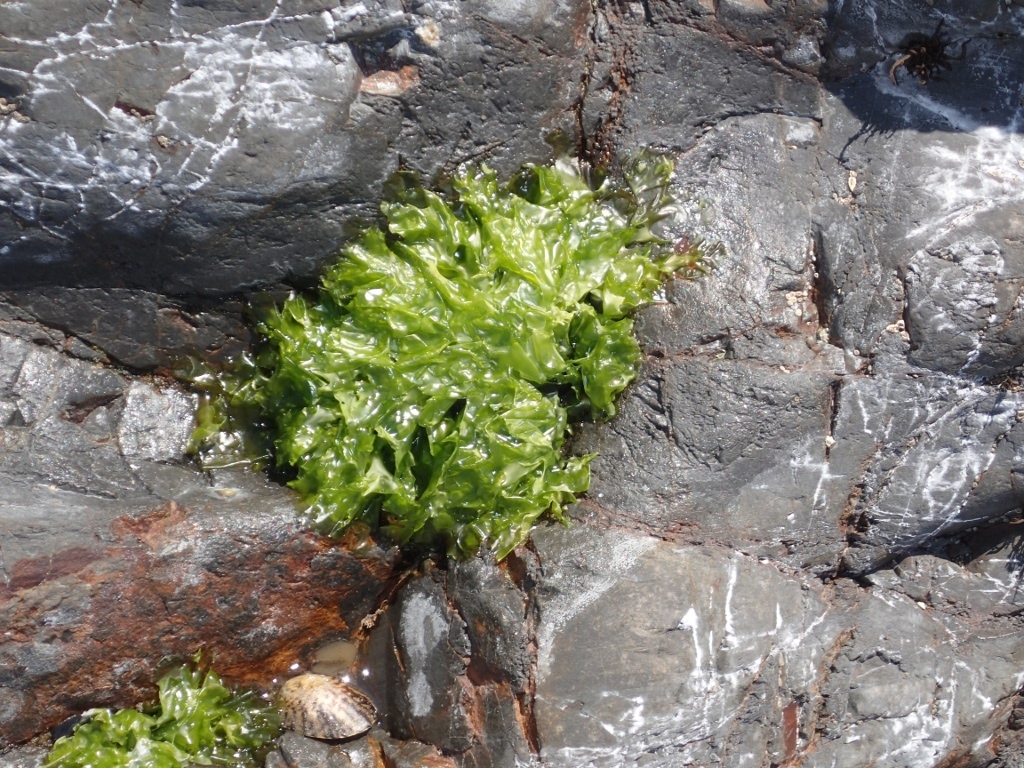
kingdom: Plantae
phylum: Chlorophyta
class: Ulvophyceae
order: Ulvales
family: Ulvaceae
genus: Ulva
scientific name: Ulva
